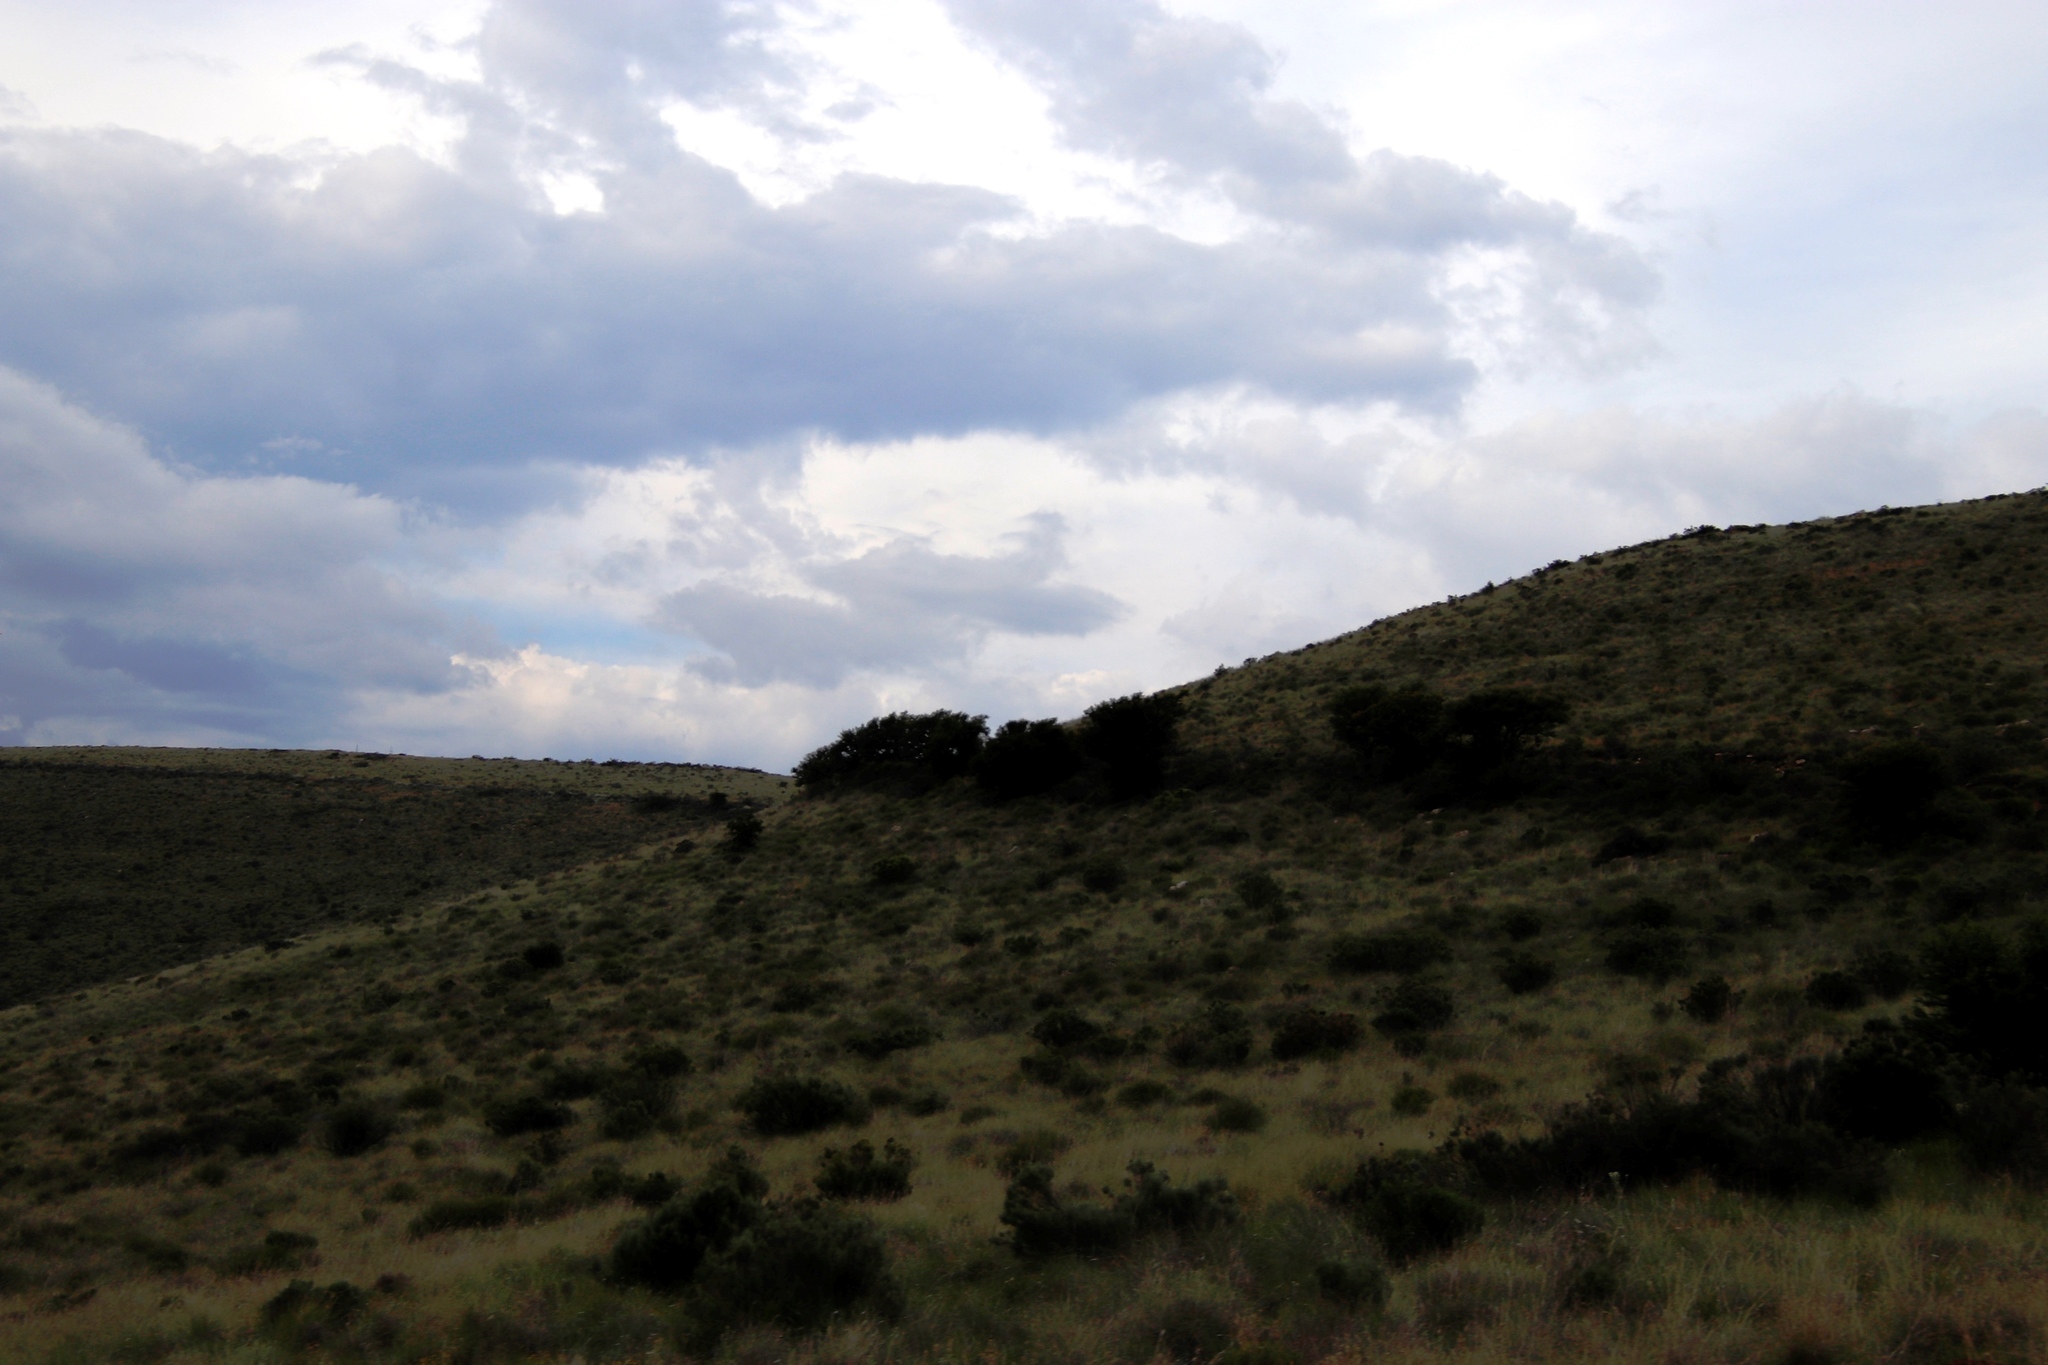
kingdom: Plantae
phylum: Tracheophyta
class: Magnoliopsida
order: Fabales
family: Fabaceae
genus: Vachellia
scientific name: Vachellia karroo
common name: Sweet thorn
